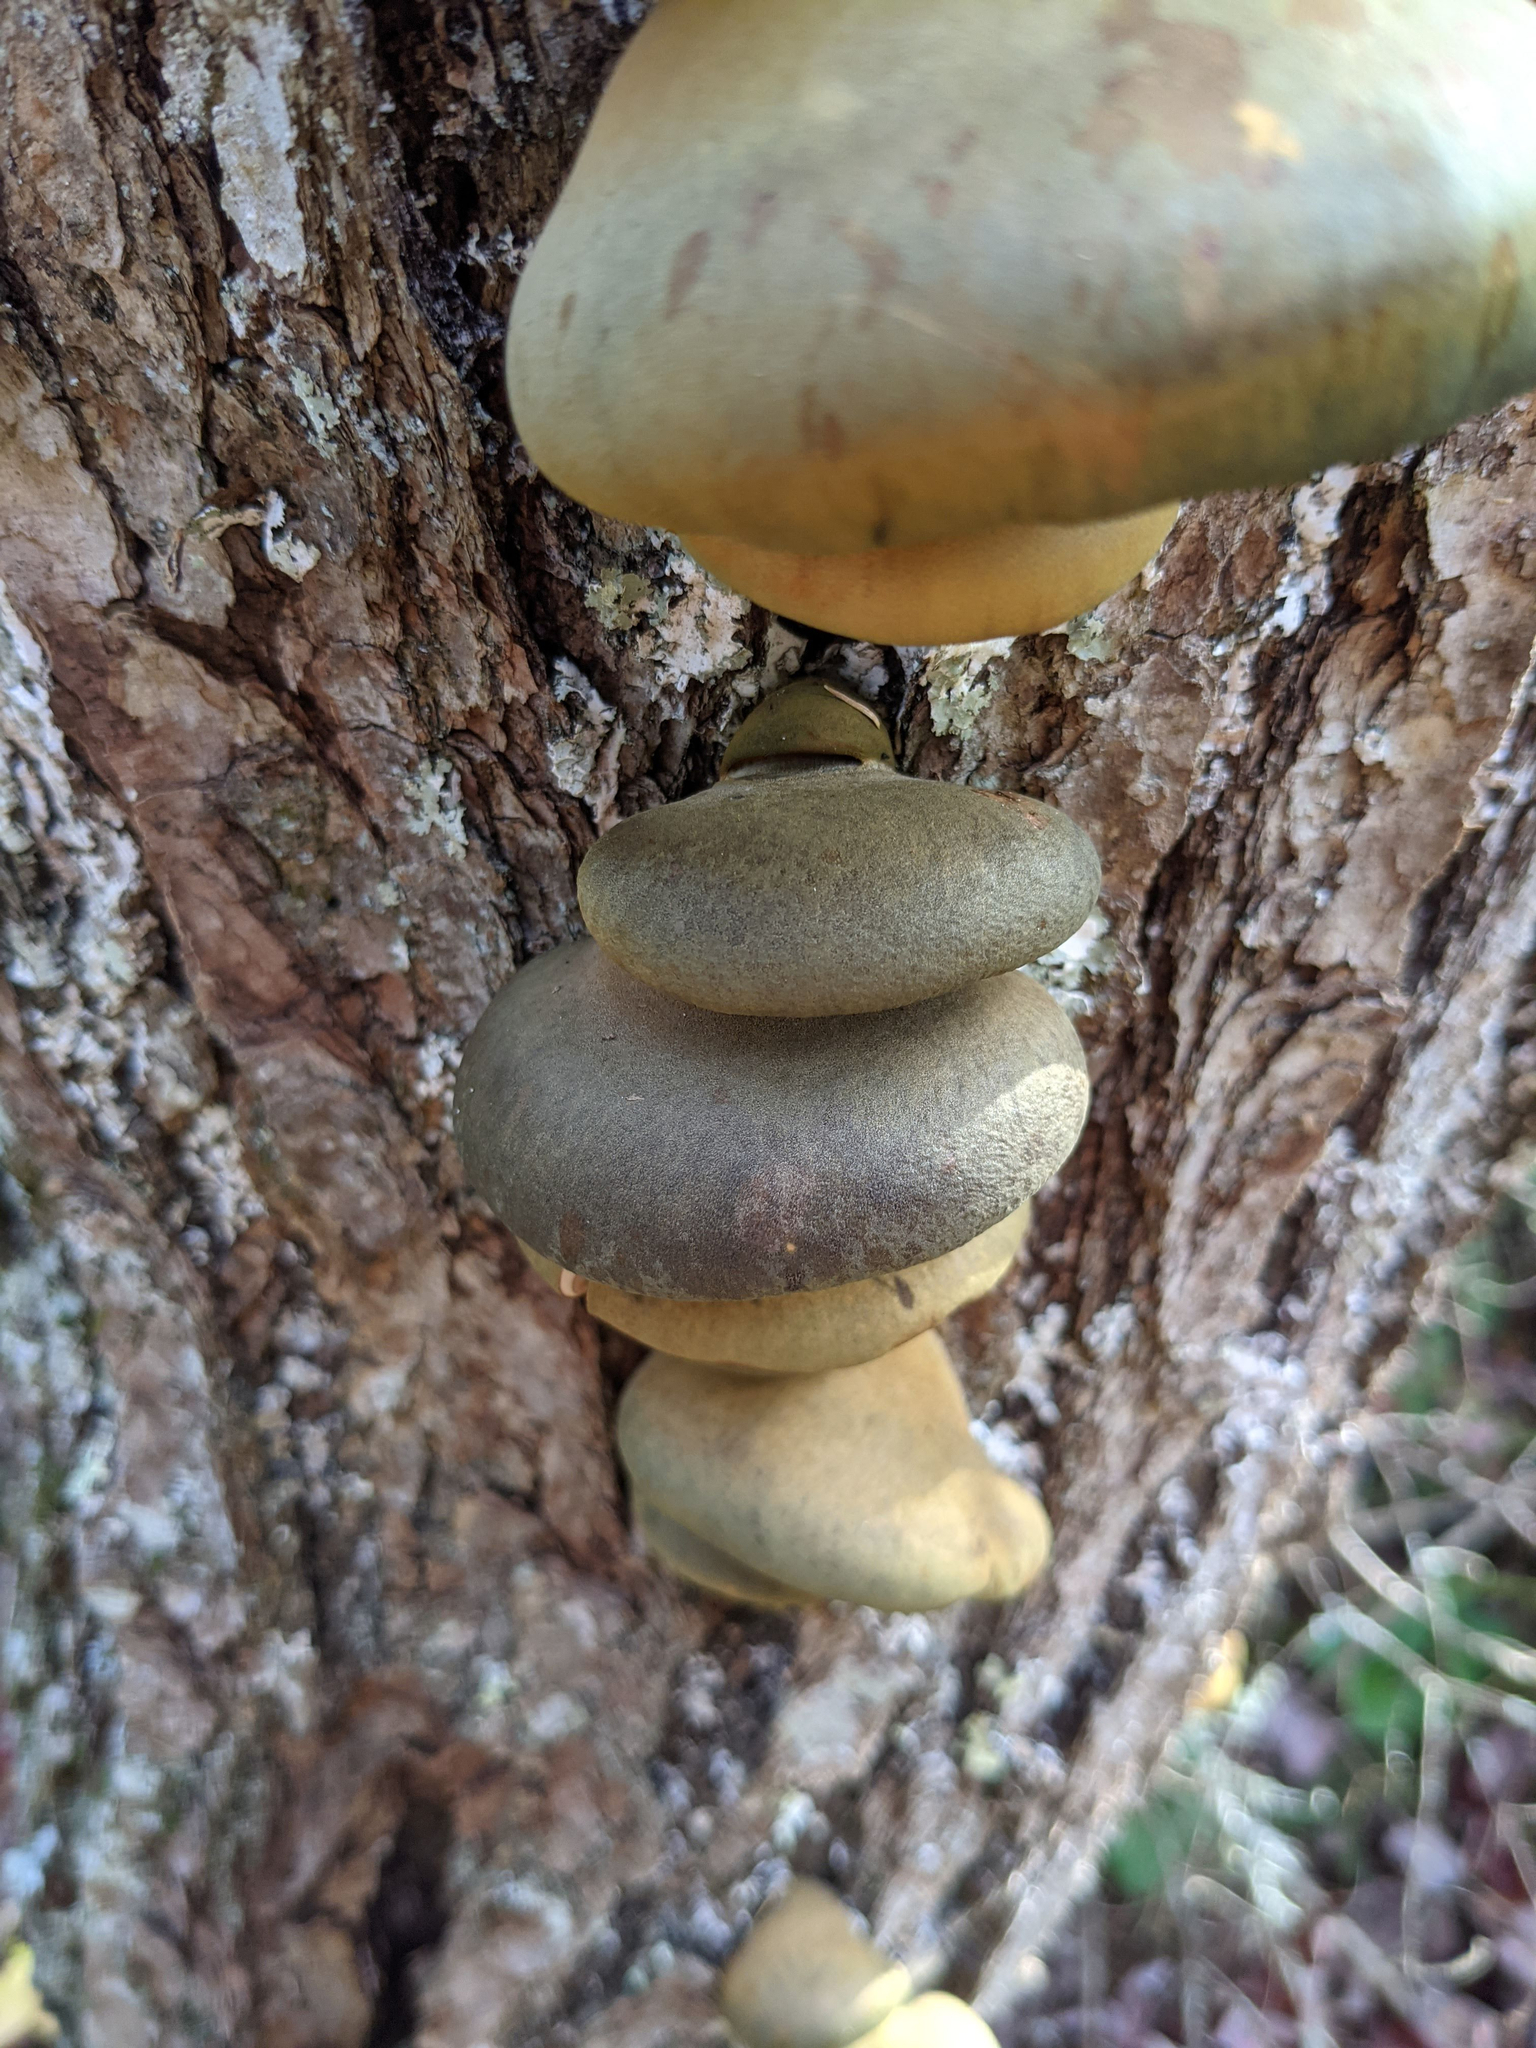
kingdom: Fungi
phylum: Basidiomycota
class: Agaricomycetes
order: Agaricales
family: Sarcomyxaceae
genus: Sarcomyxa
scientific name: Sarcomyxa serotina
